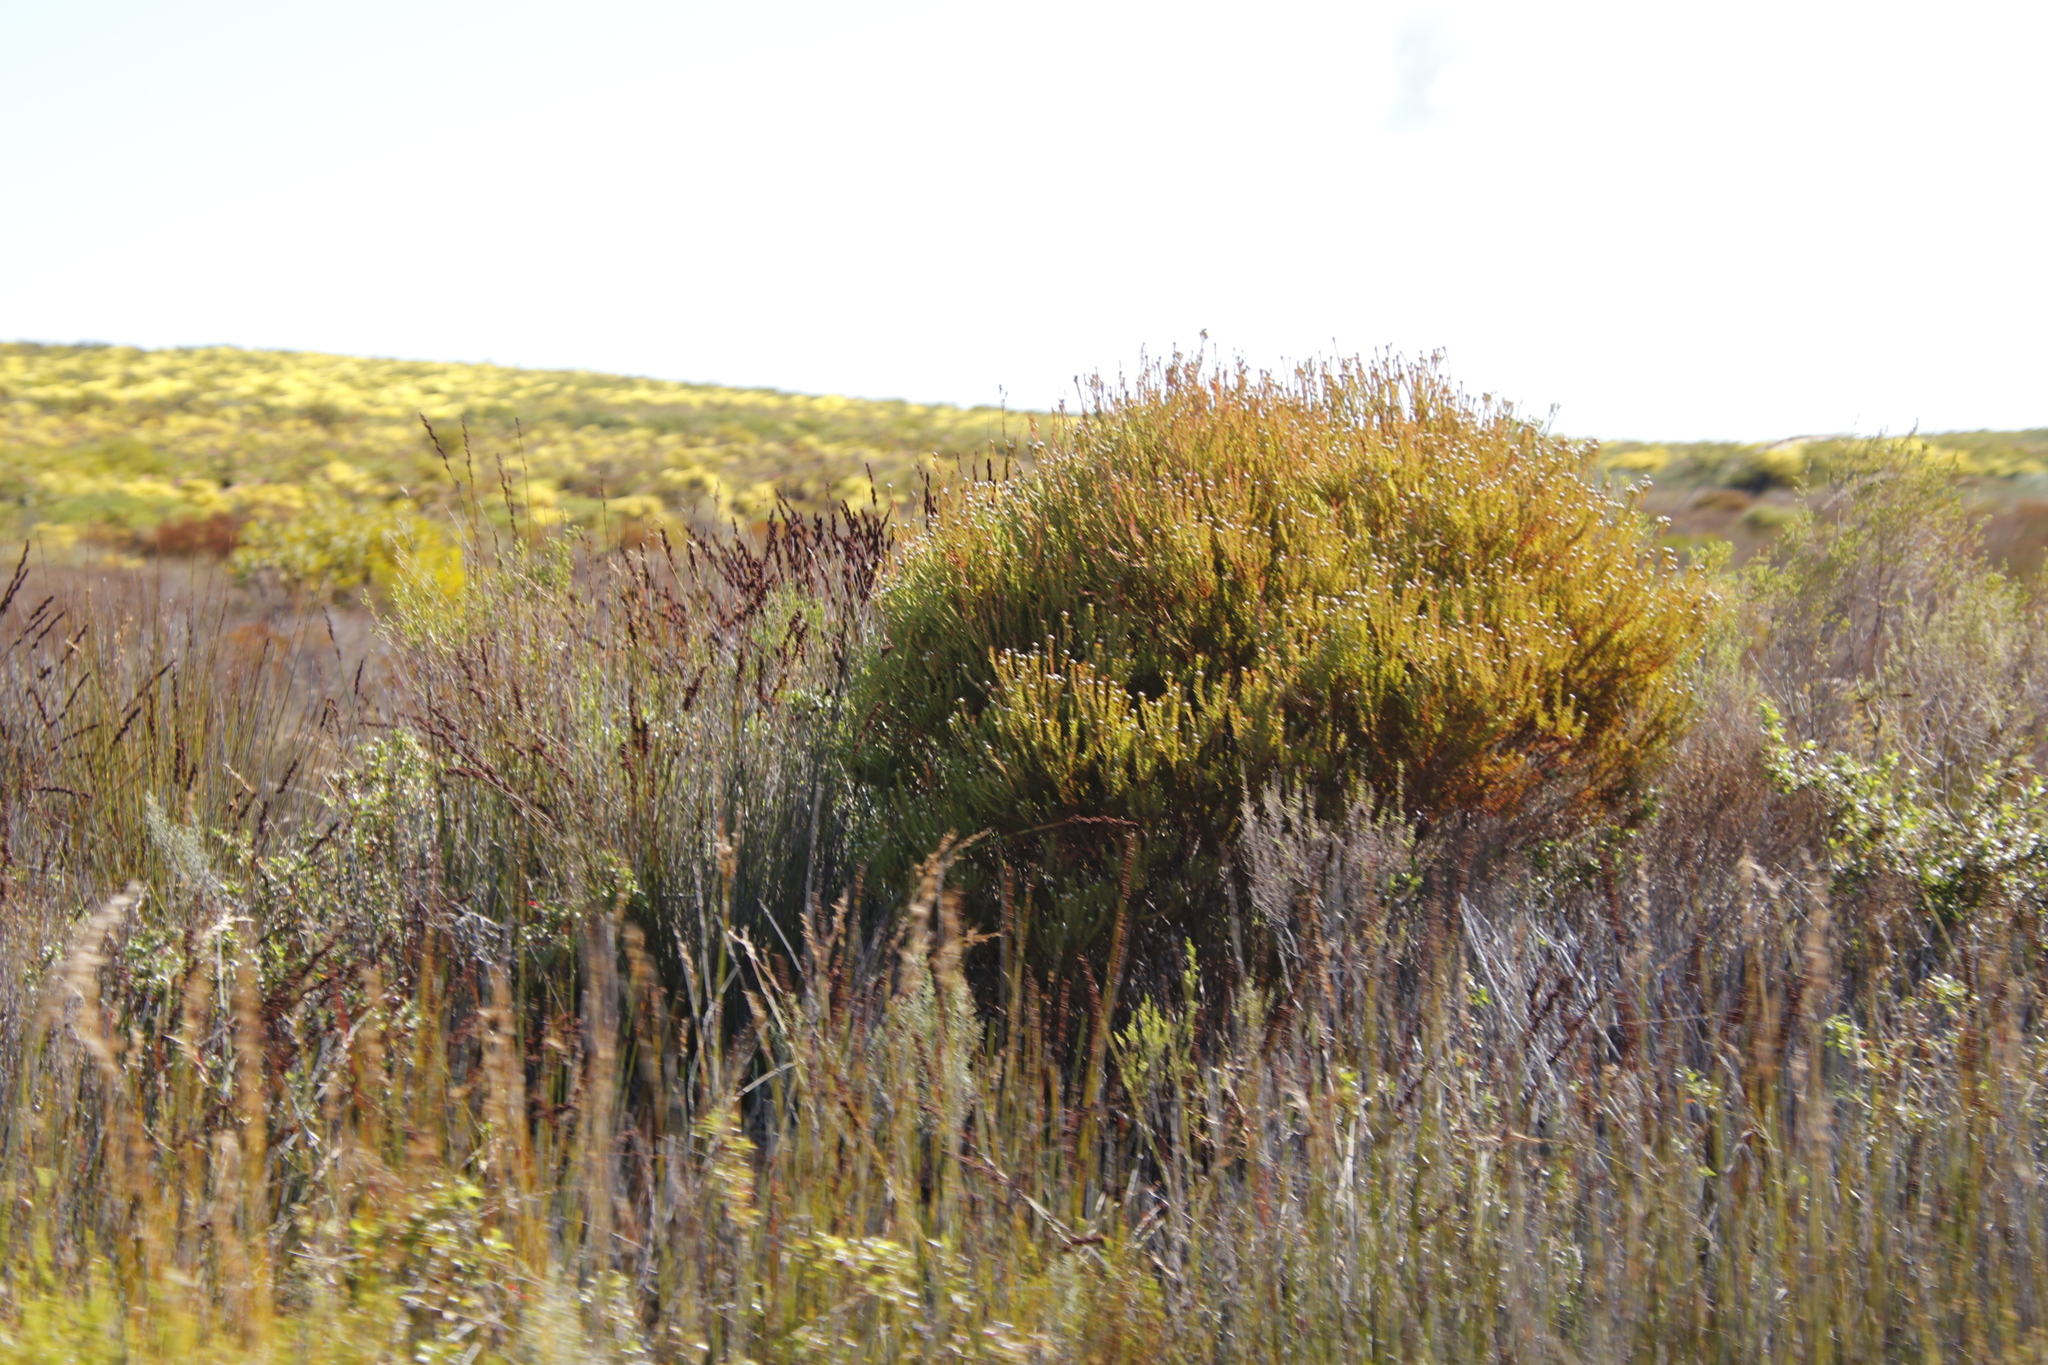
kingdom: Plantae
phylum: Tracheophyta
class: Magnoliopsida
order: Proteales
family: Proteaceae
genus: Leucadendron
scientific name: Leucadendron linifolium
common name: Line-leaf conebush
